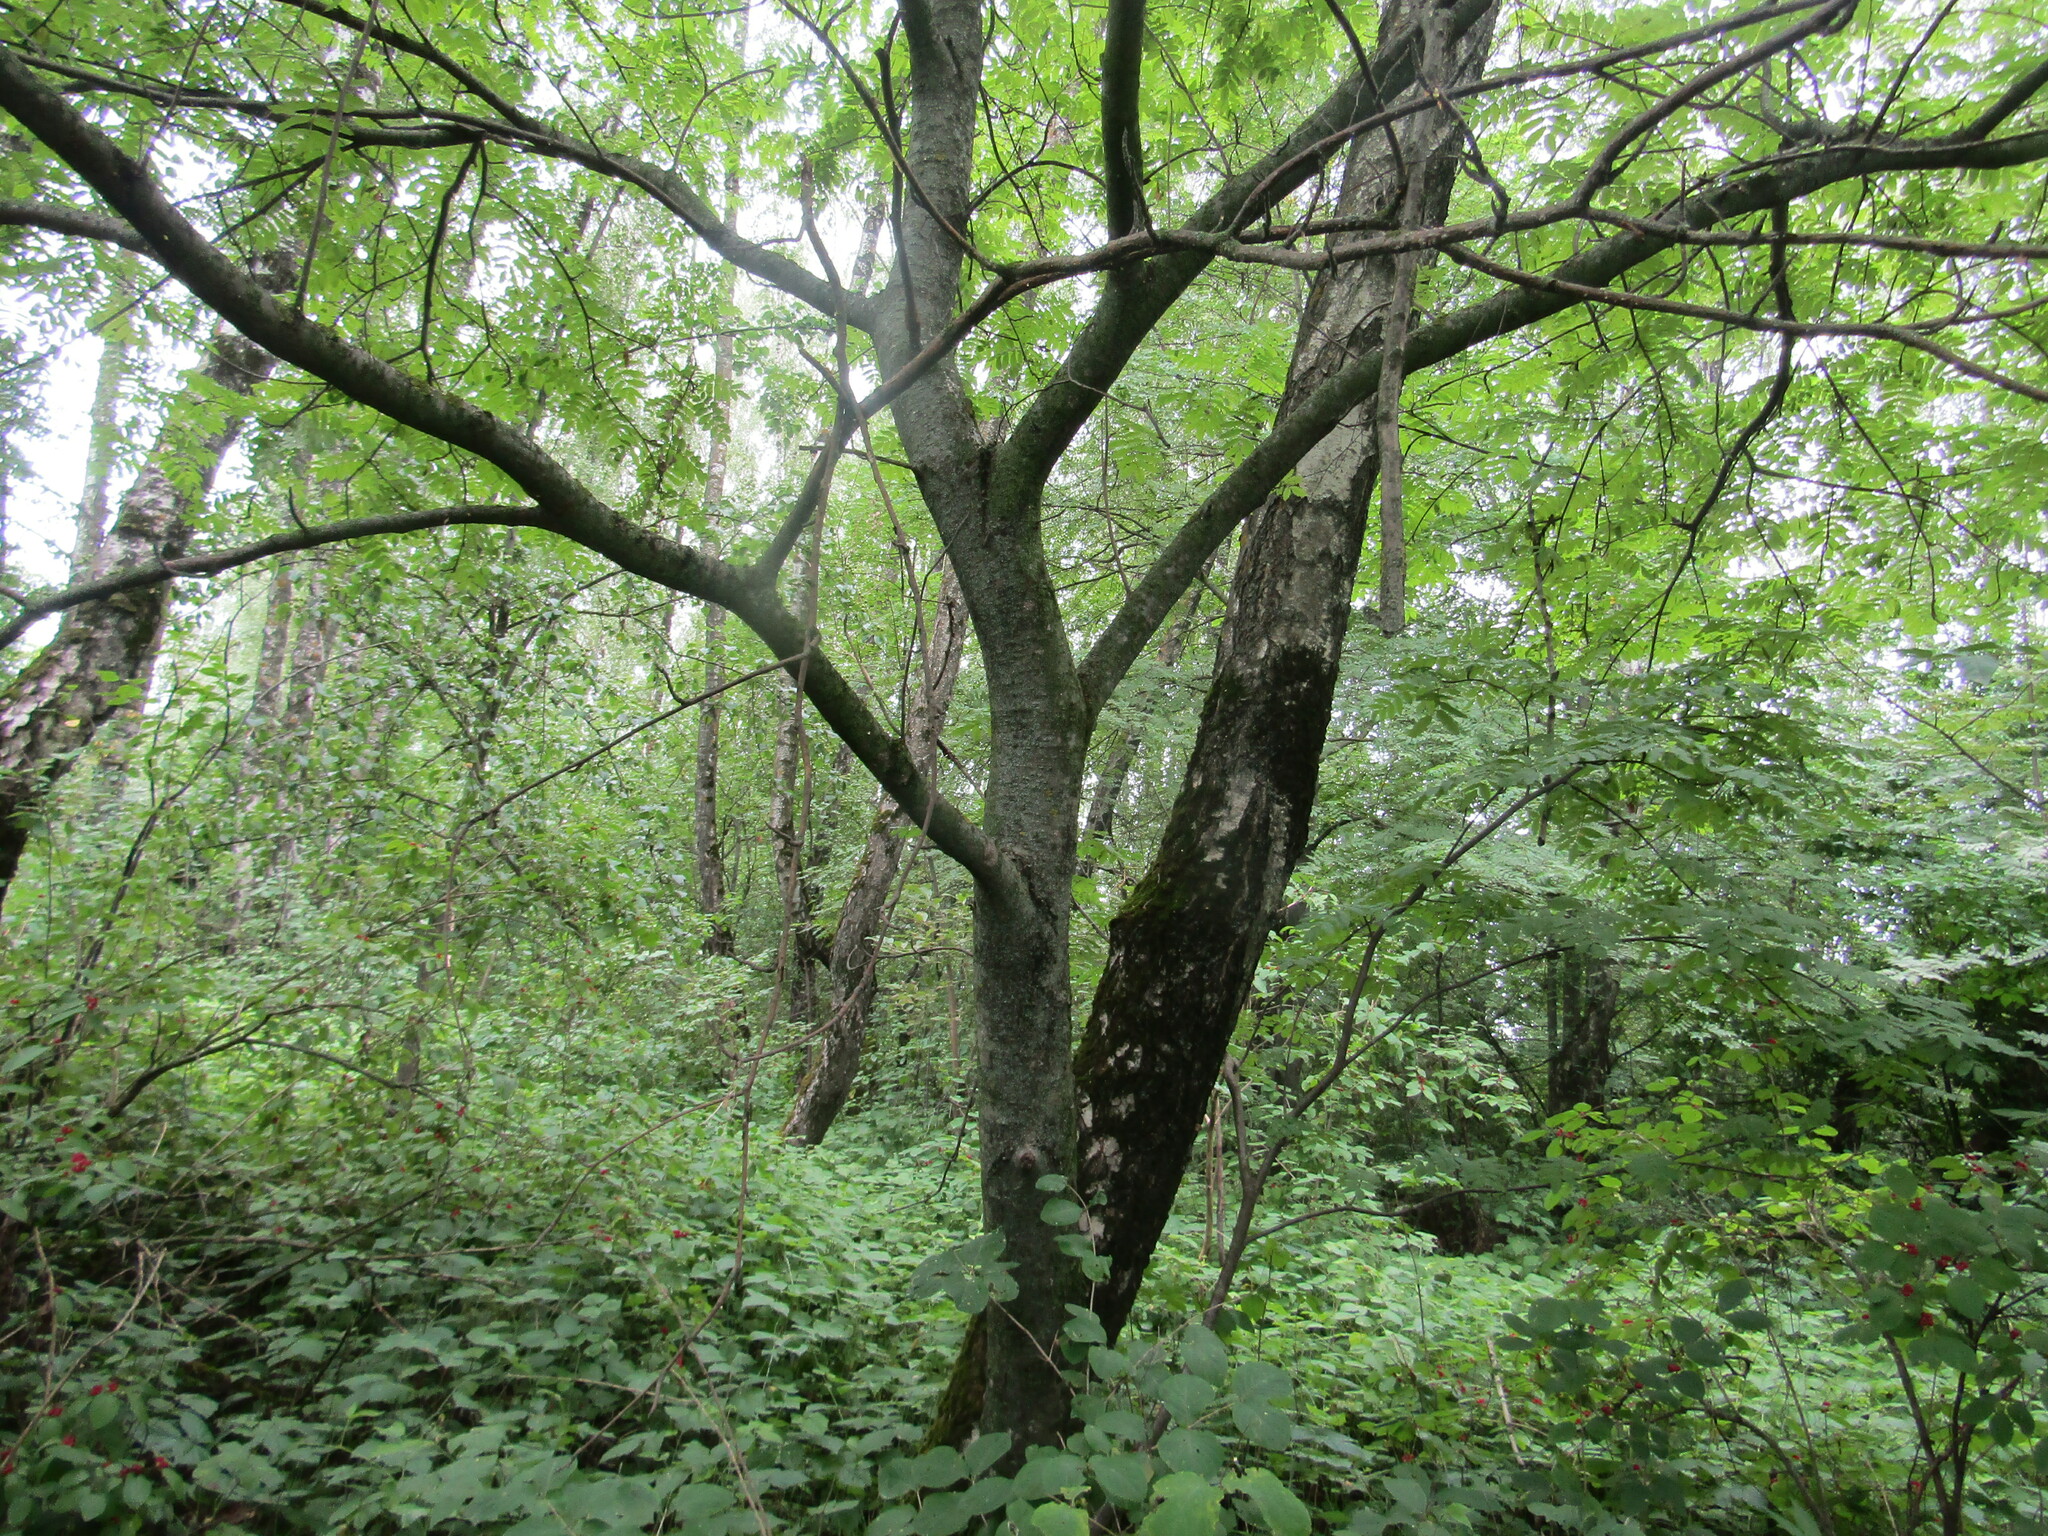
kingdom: Plantae
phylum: Tracheophyta
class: Magnoliopsida
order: Rosales
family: Rosaceae
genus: Sorbus
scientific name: Sorbus aucuparia
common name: Rowan
